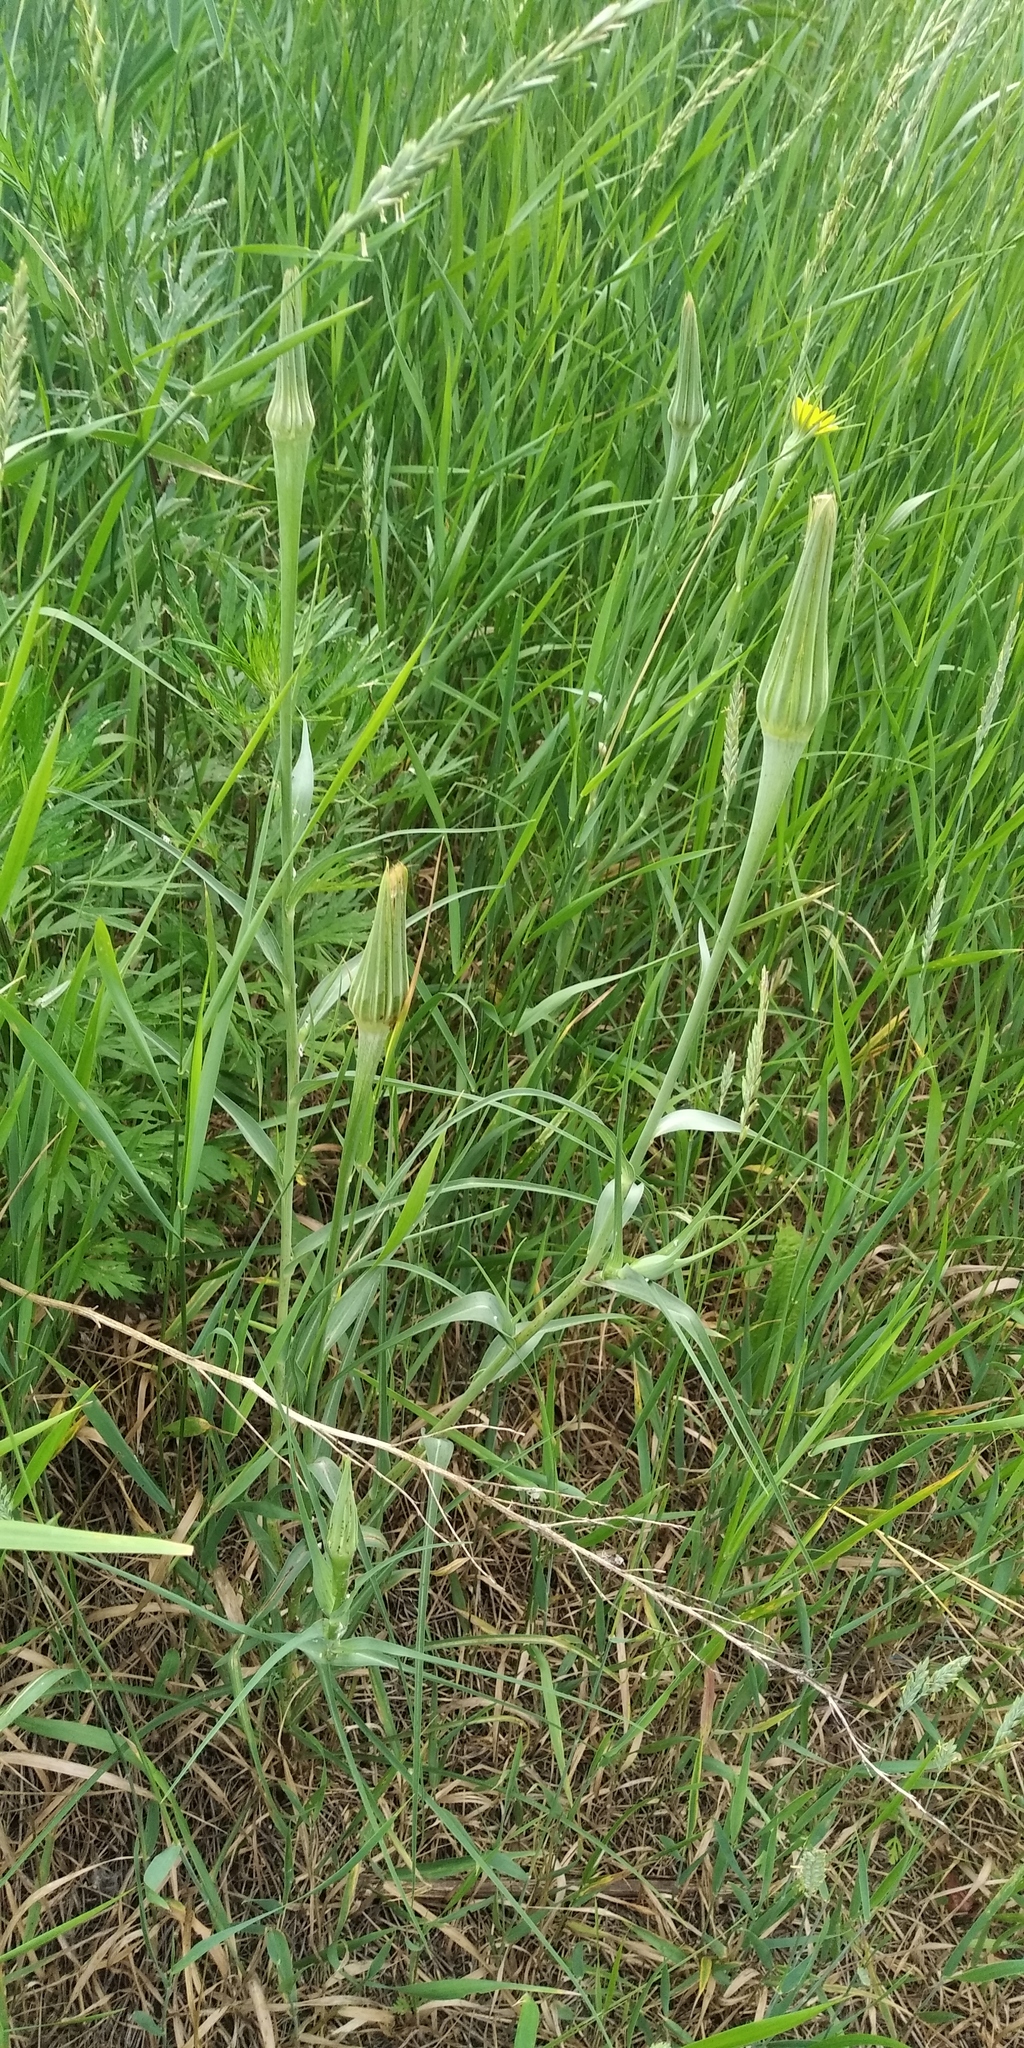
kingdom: Plantae
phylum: Tracheophyta
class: Magnoliopsida
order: Asterales
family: Asteraceae
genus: Tragopogon
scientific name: Tragopogon dubius
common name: Yellow salsify
